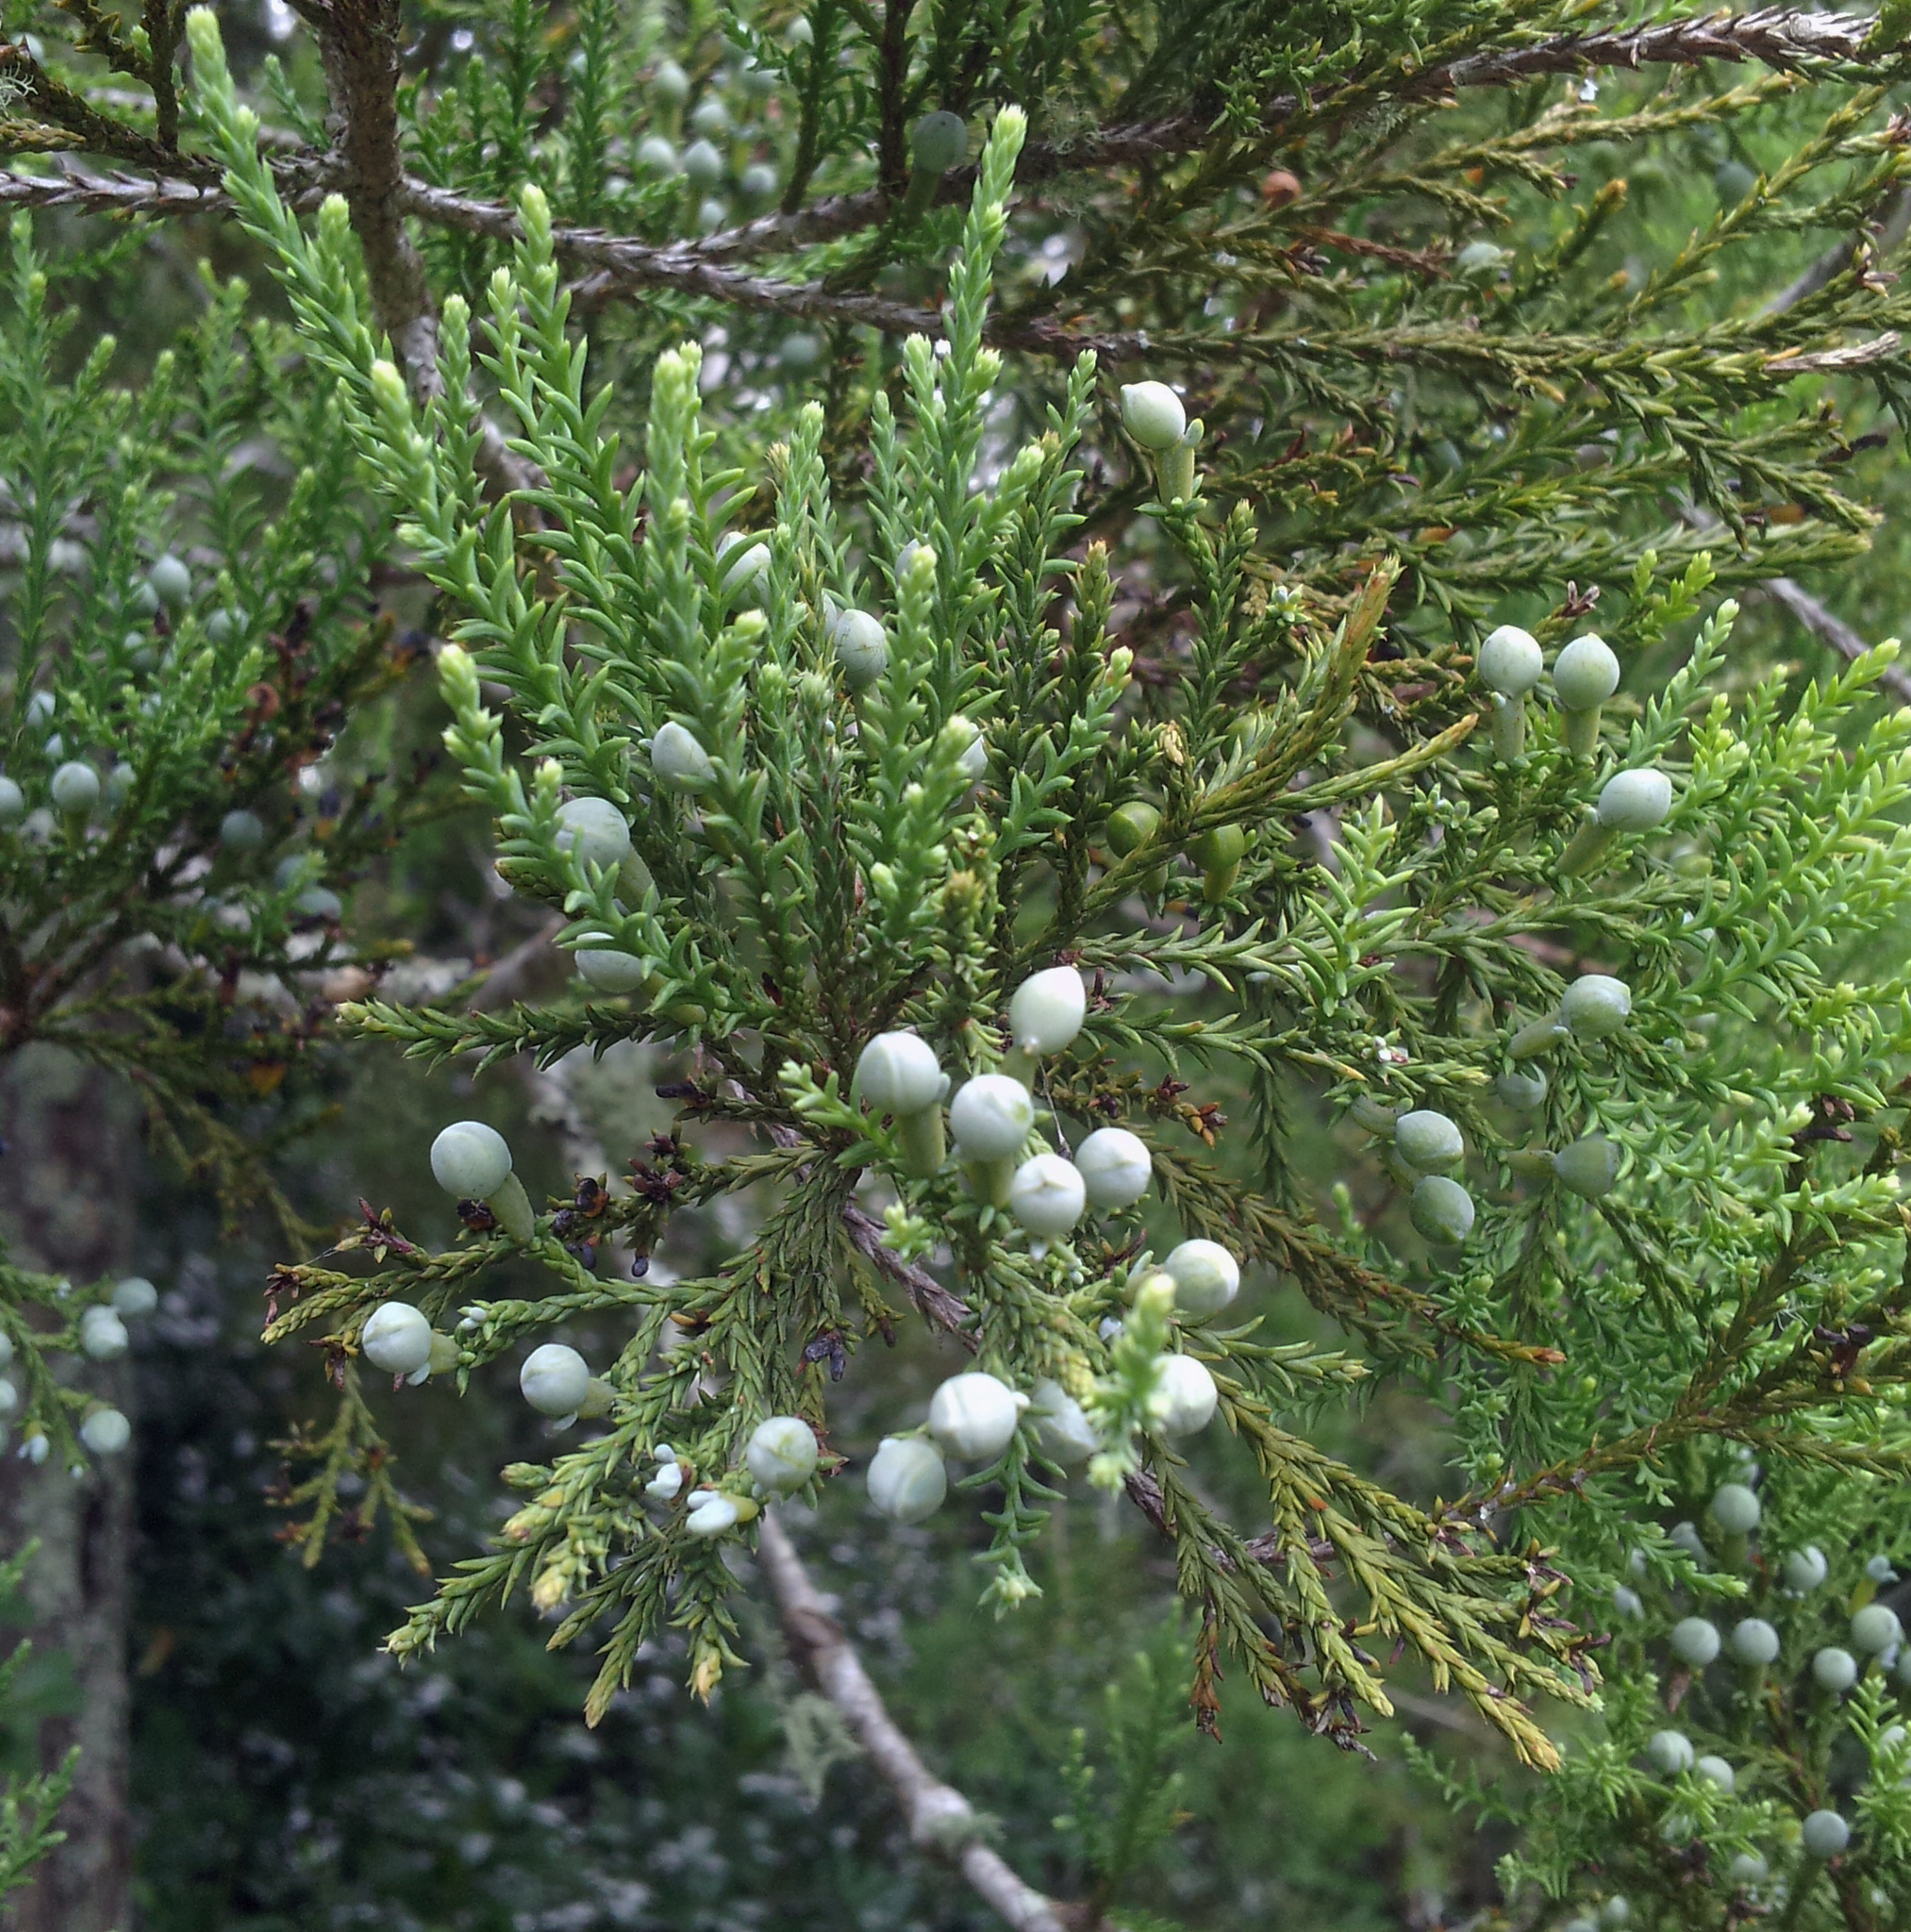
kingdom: Plantae
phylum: Tracheophyta
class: Pinopsida
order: Pinales
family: Podocarpaceae
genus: Dacrycarpus
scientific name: Dacrycarpus dacrydioides
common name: White pine
